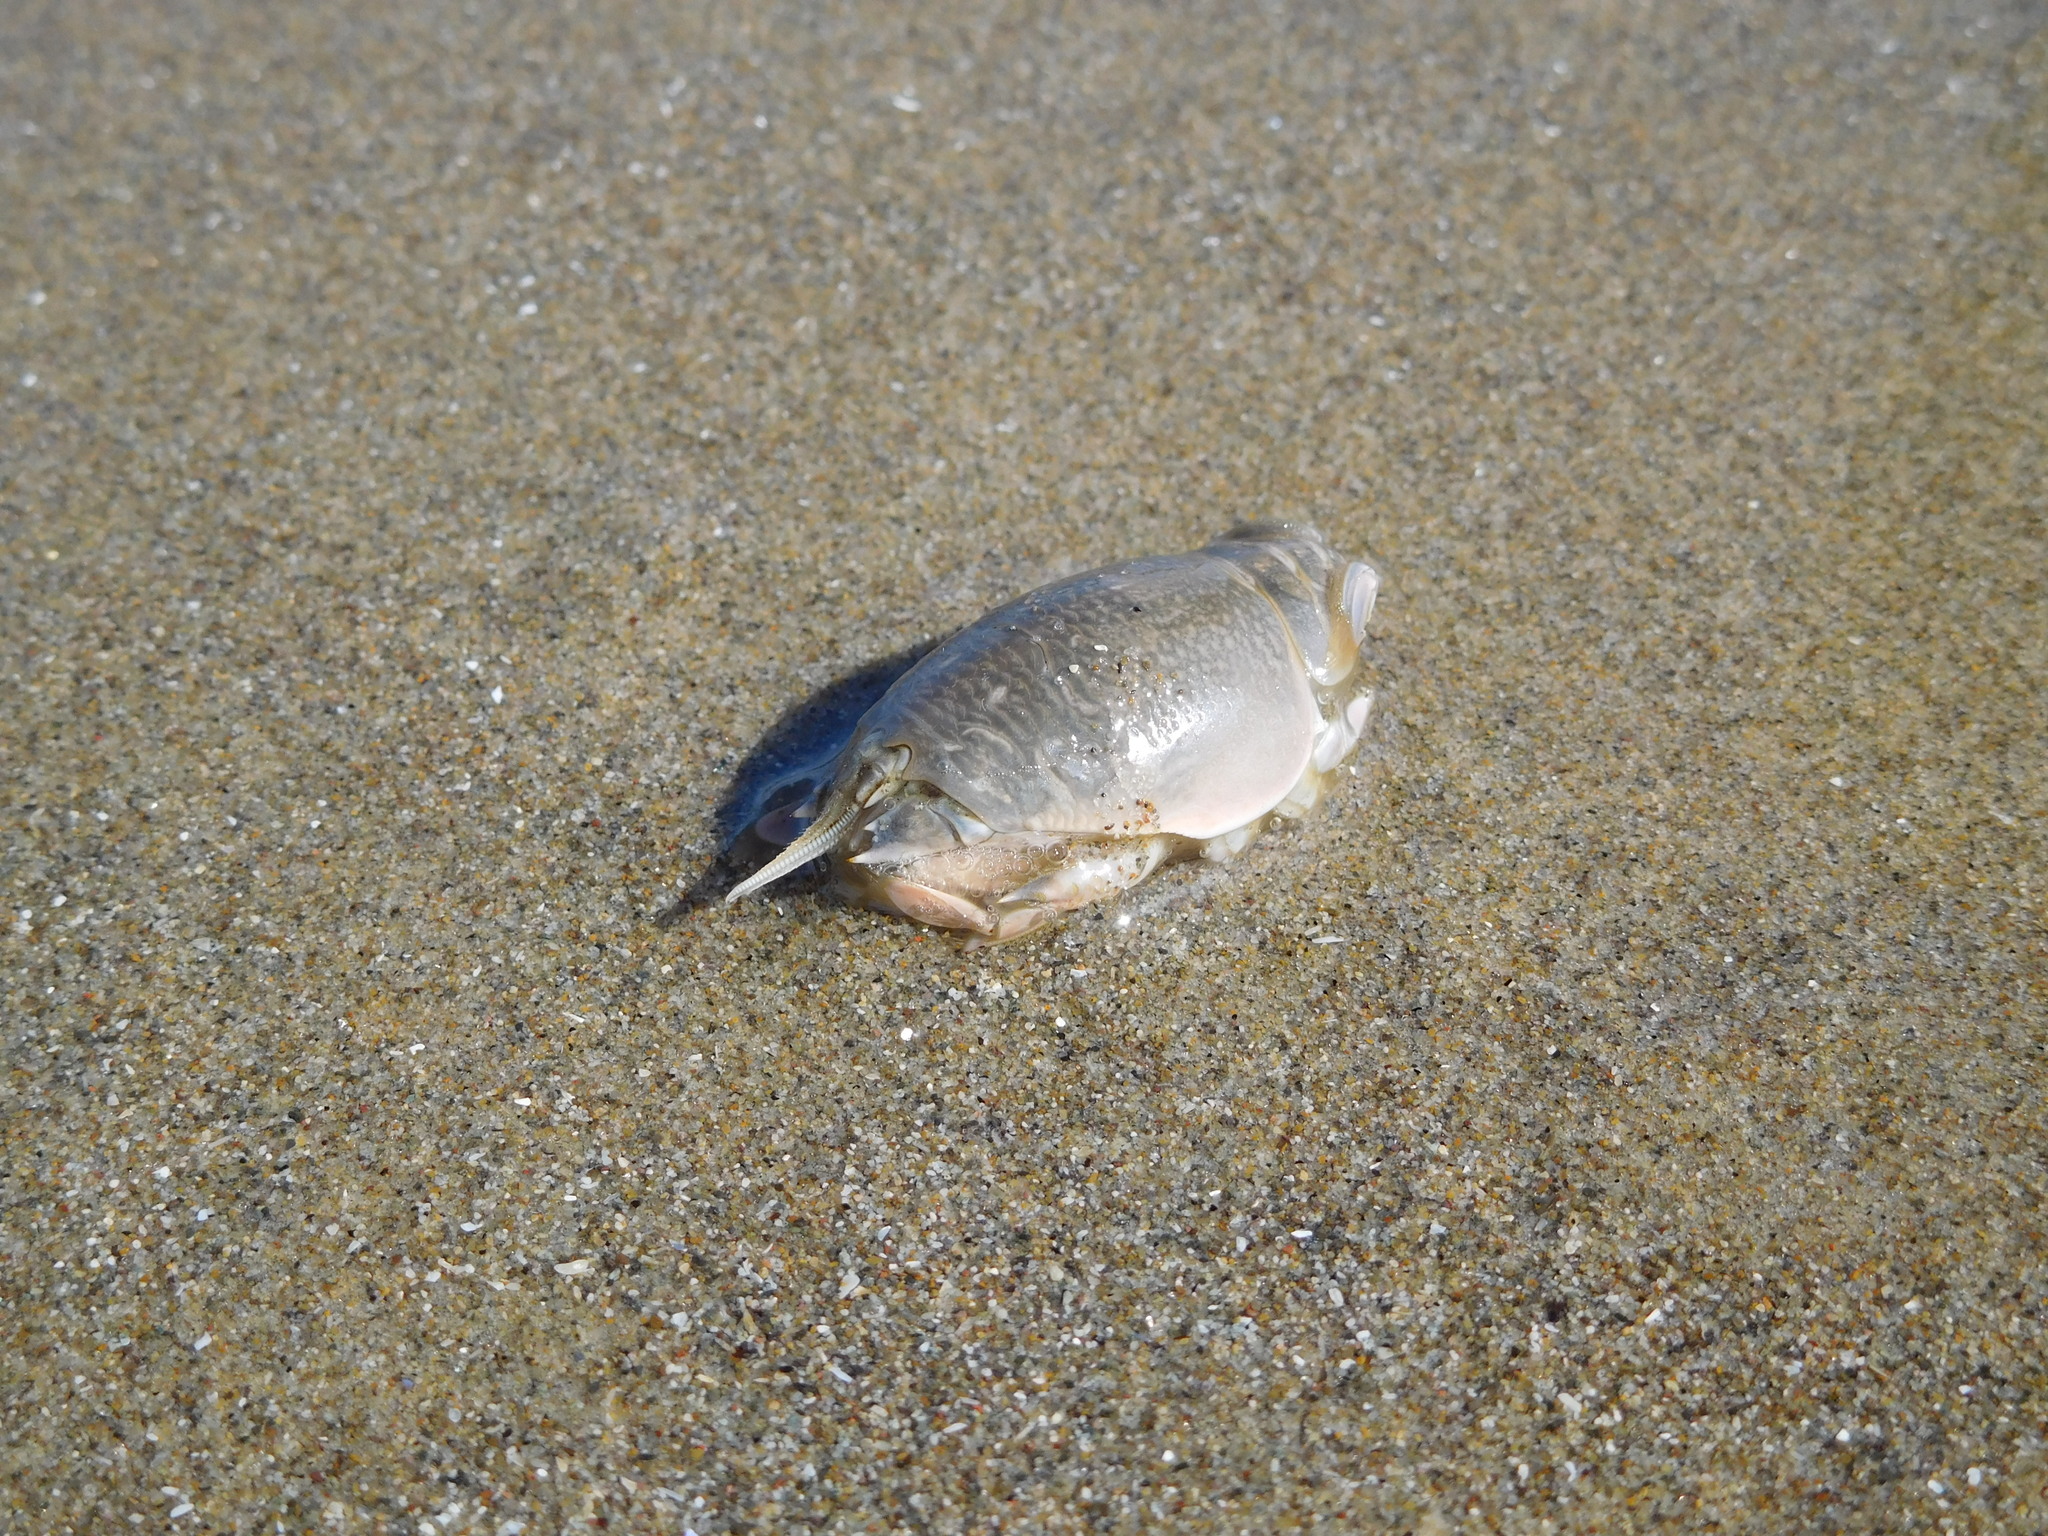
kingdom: Animalia
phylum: Arthropoda
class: Malacostraca
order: Decapoda
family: Hippidae
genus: Emerita
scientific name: Emerita analoga
